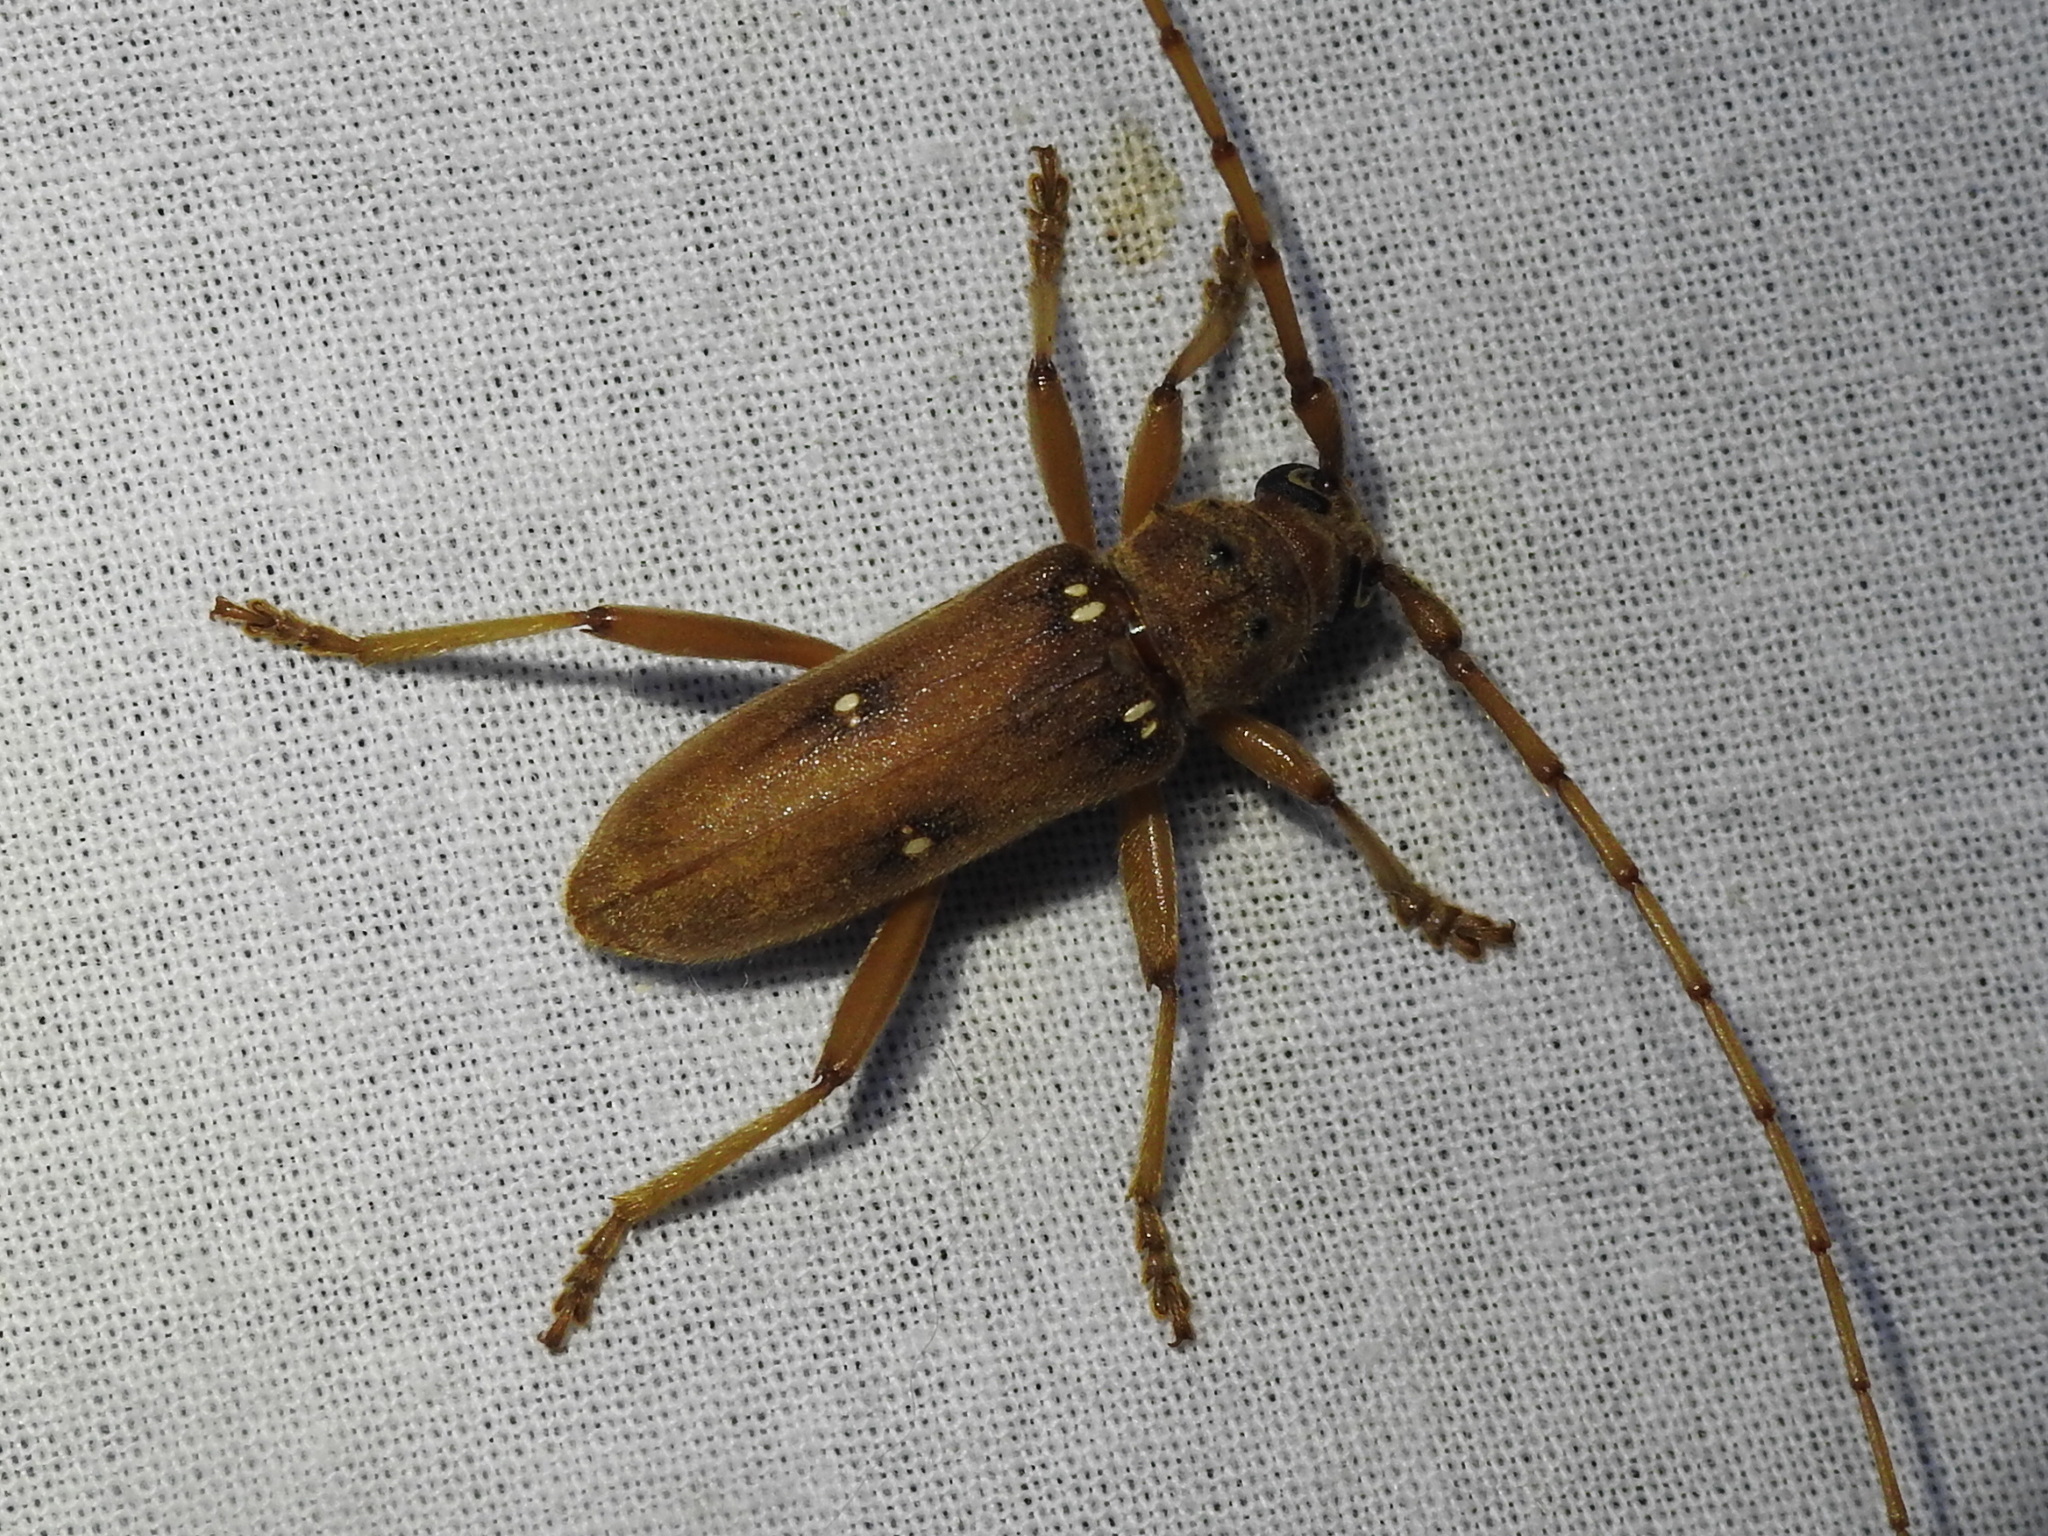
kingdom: Animalia
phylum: Arthropoda
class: Insecta
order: Coleoptera
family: Cerambycidae
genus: Eburia
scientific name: Eburia haldemani
